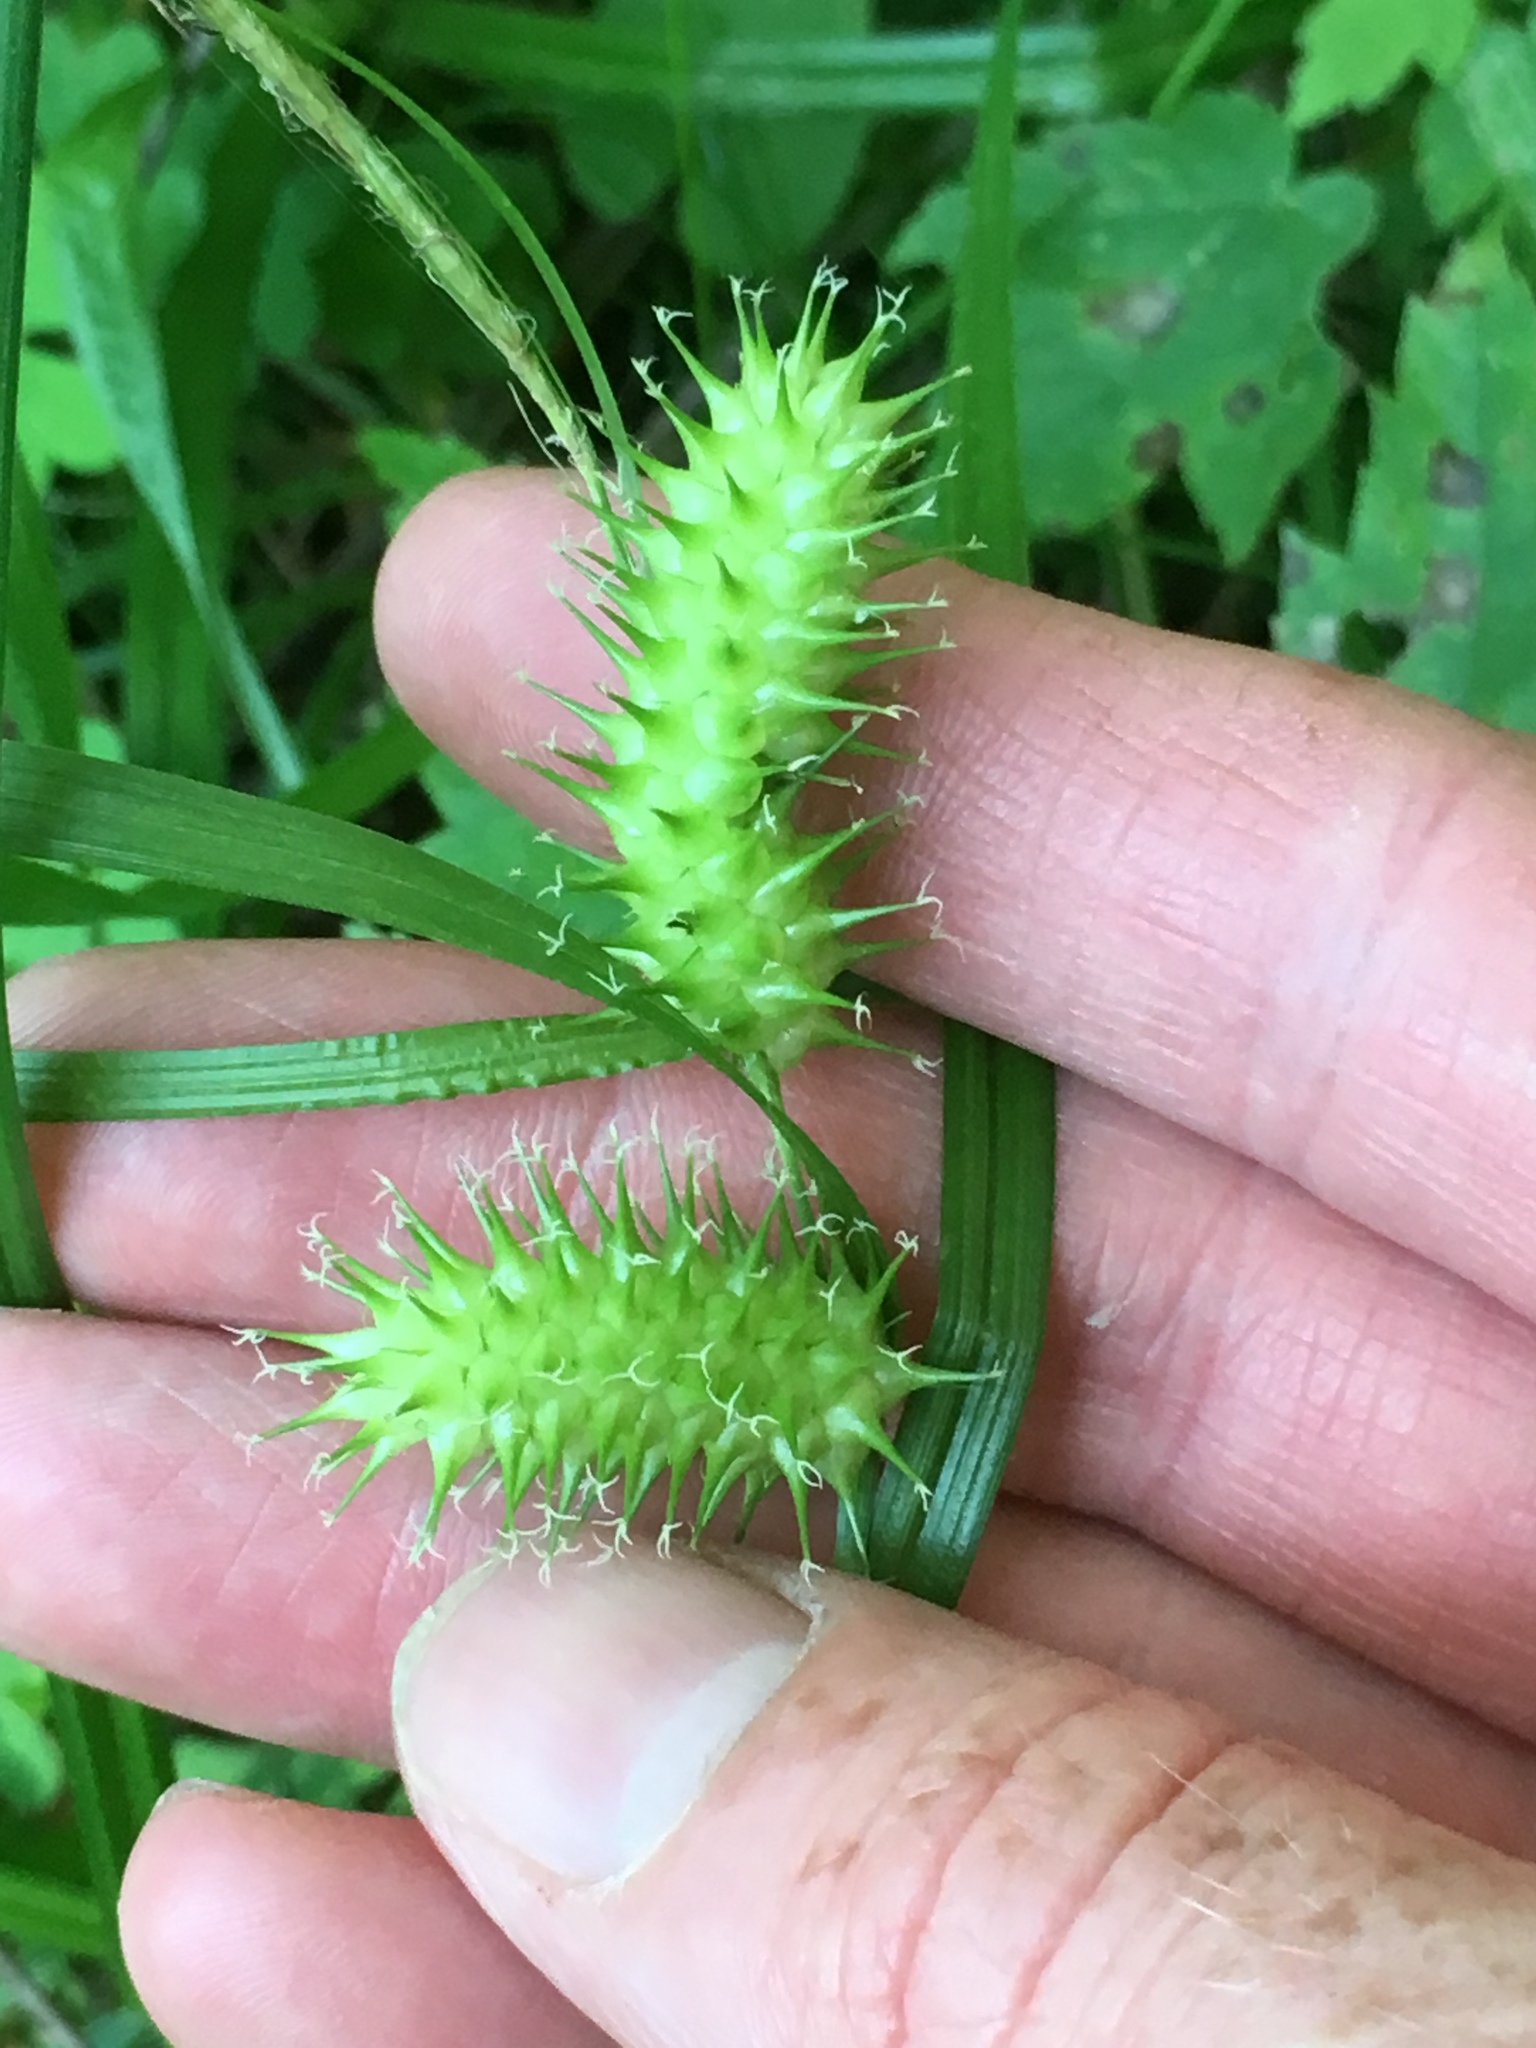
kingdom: Plantae
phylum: Tracheophyta
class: Liliopsida
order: Poales
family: Cyperaceae
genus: Carex
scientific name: Carex lurida
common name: Sallow sedge
